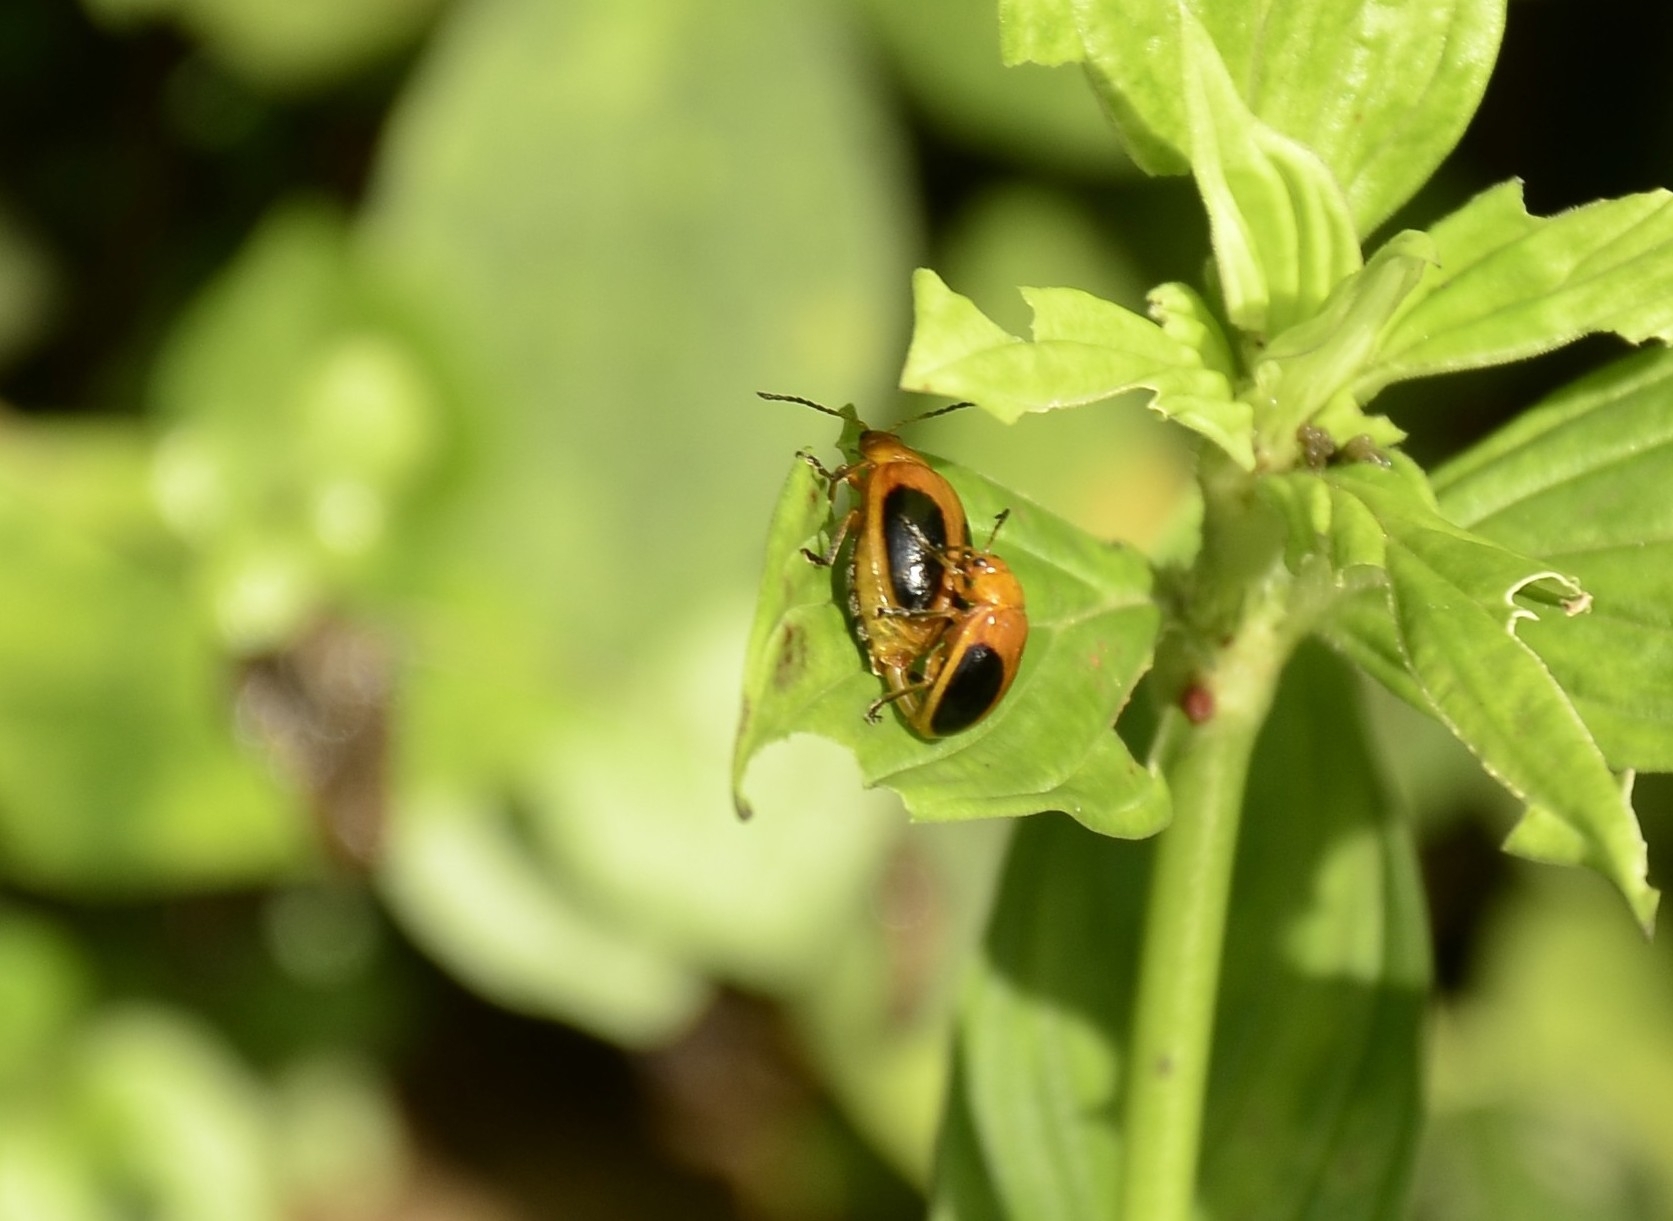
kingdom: Animalia
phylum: Arthropoda
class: Insecta
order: Coleoptera
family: Chrysomelidae
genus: Oides
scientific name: Oides affinis
